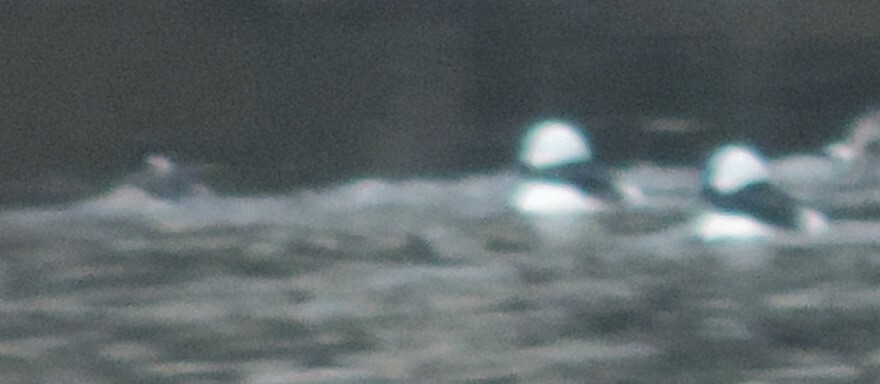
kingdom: Animalia
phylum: Chordata
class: Aves
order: Anseriformes
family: Anatidae
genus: Bucephala
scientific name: Bucephala albeola
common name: Bufflehead
